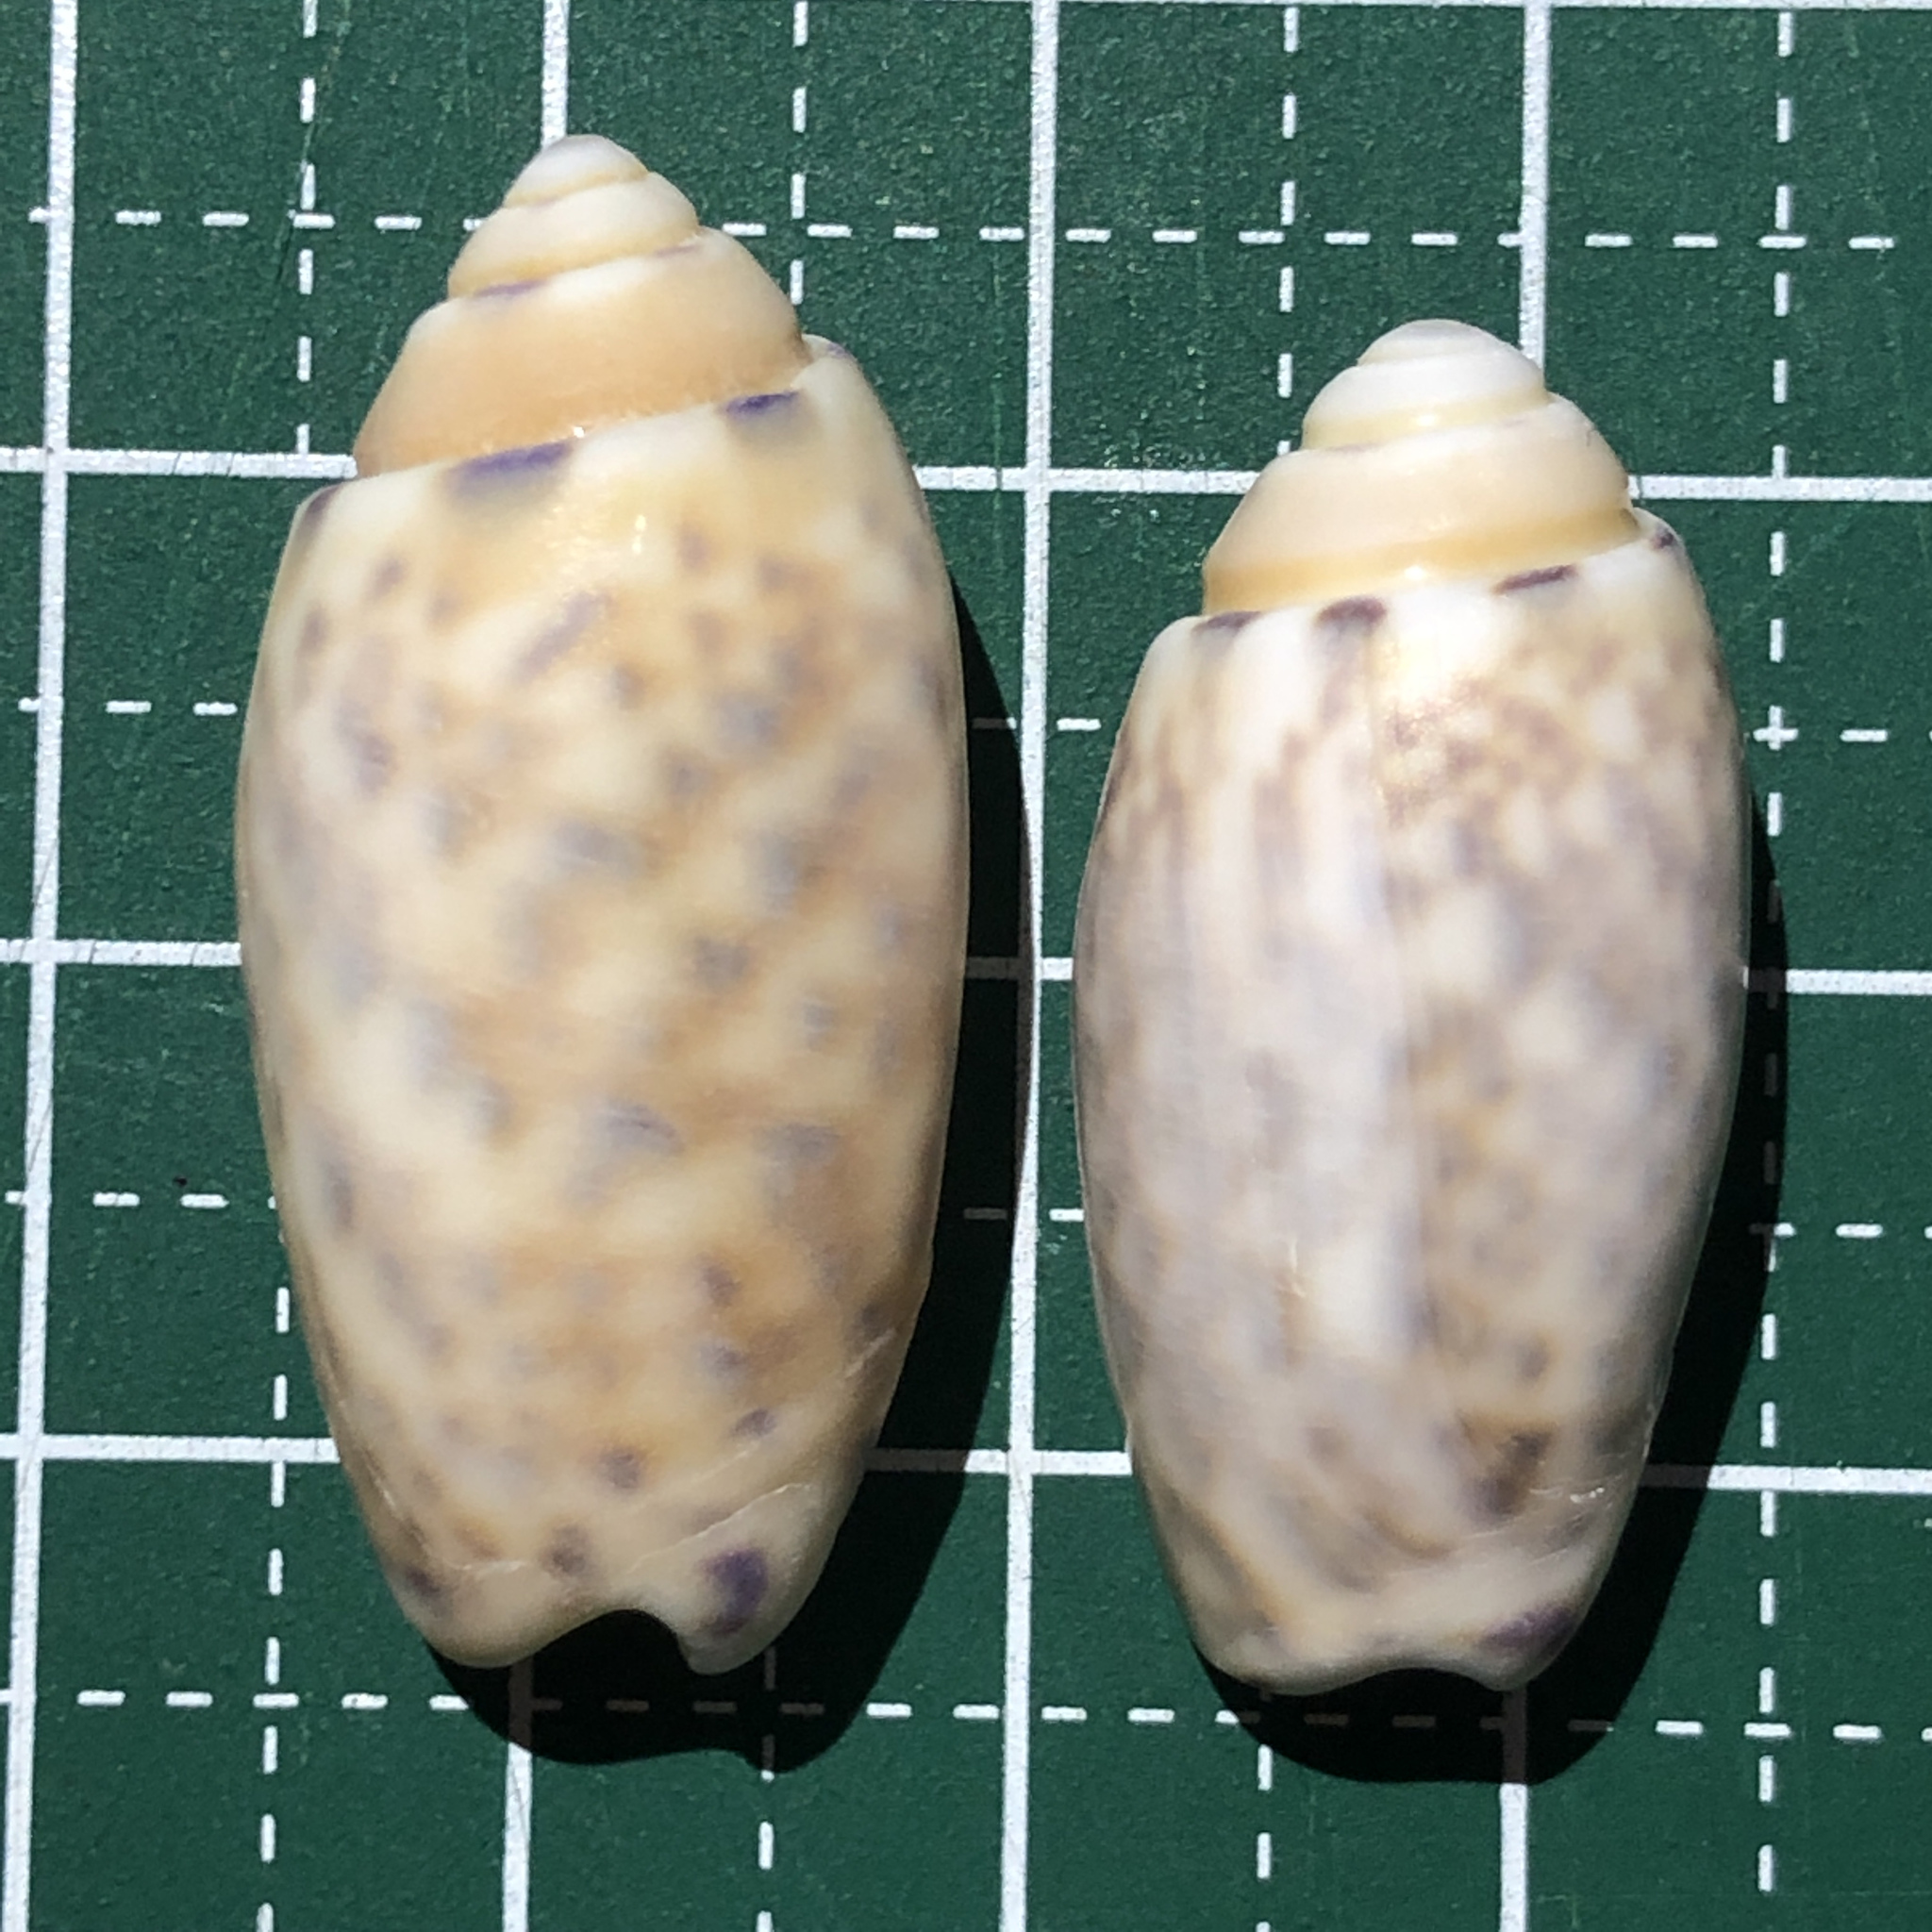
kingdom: Animalia
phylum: Mollusca
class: Gastropoda
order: Neogastropoda
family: Olividae
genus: Oliva
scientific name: Oliva amethystina
